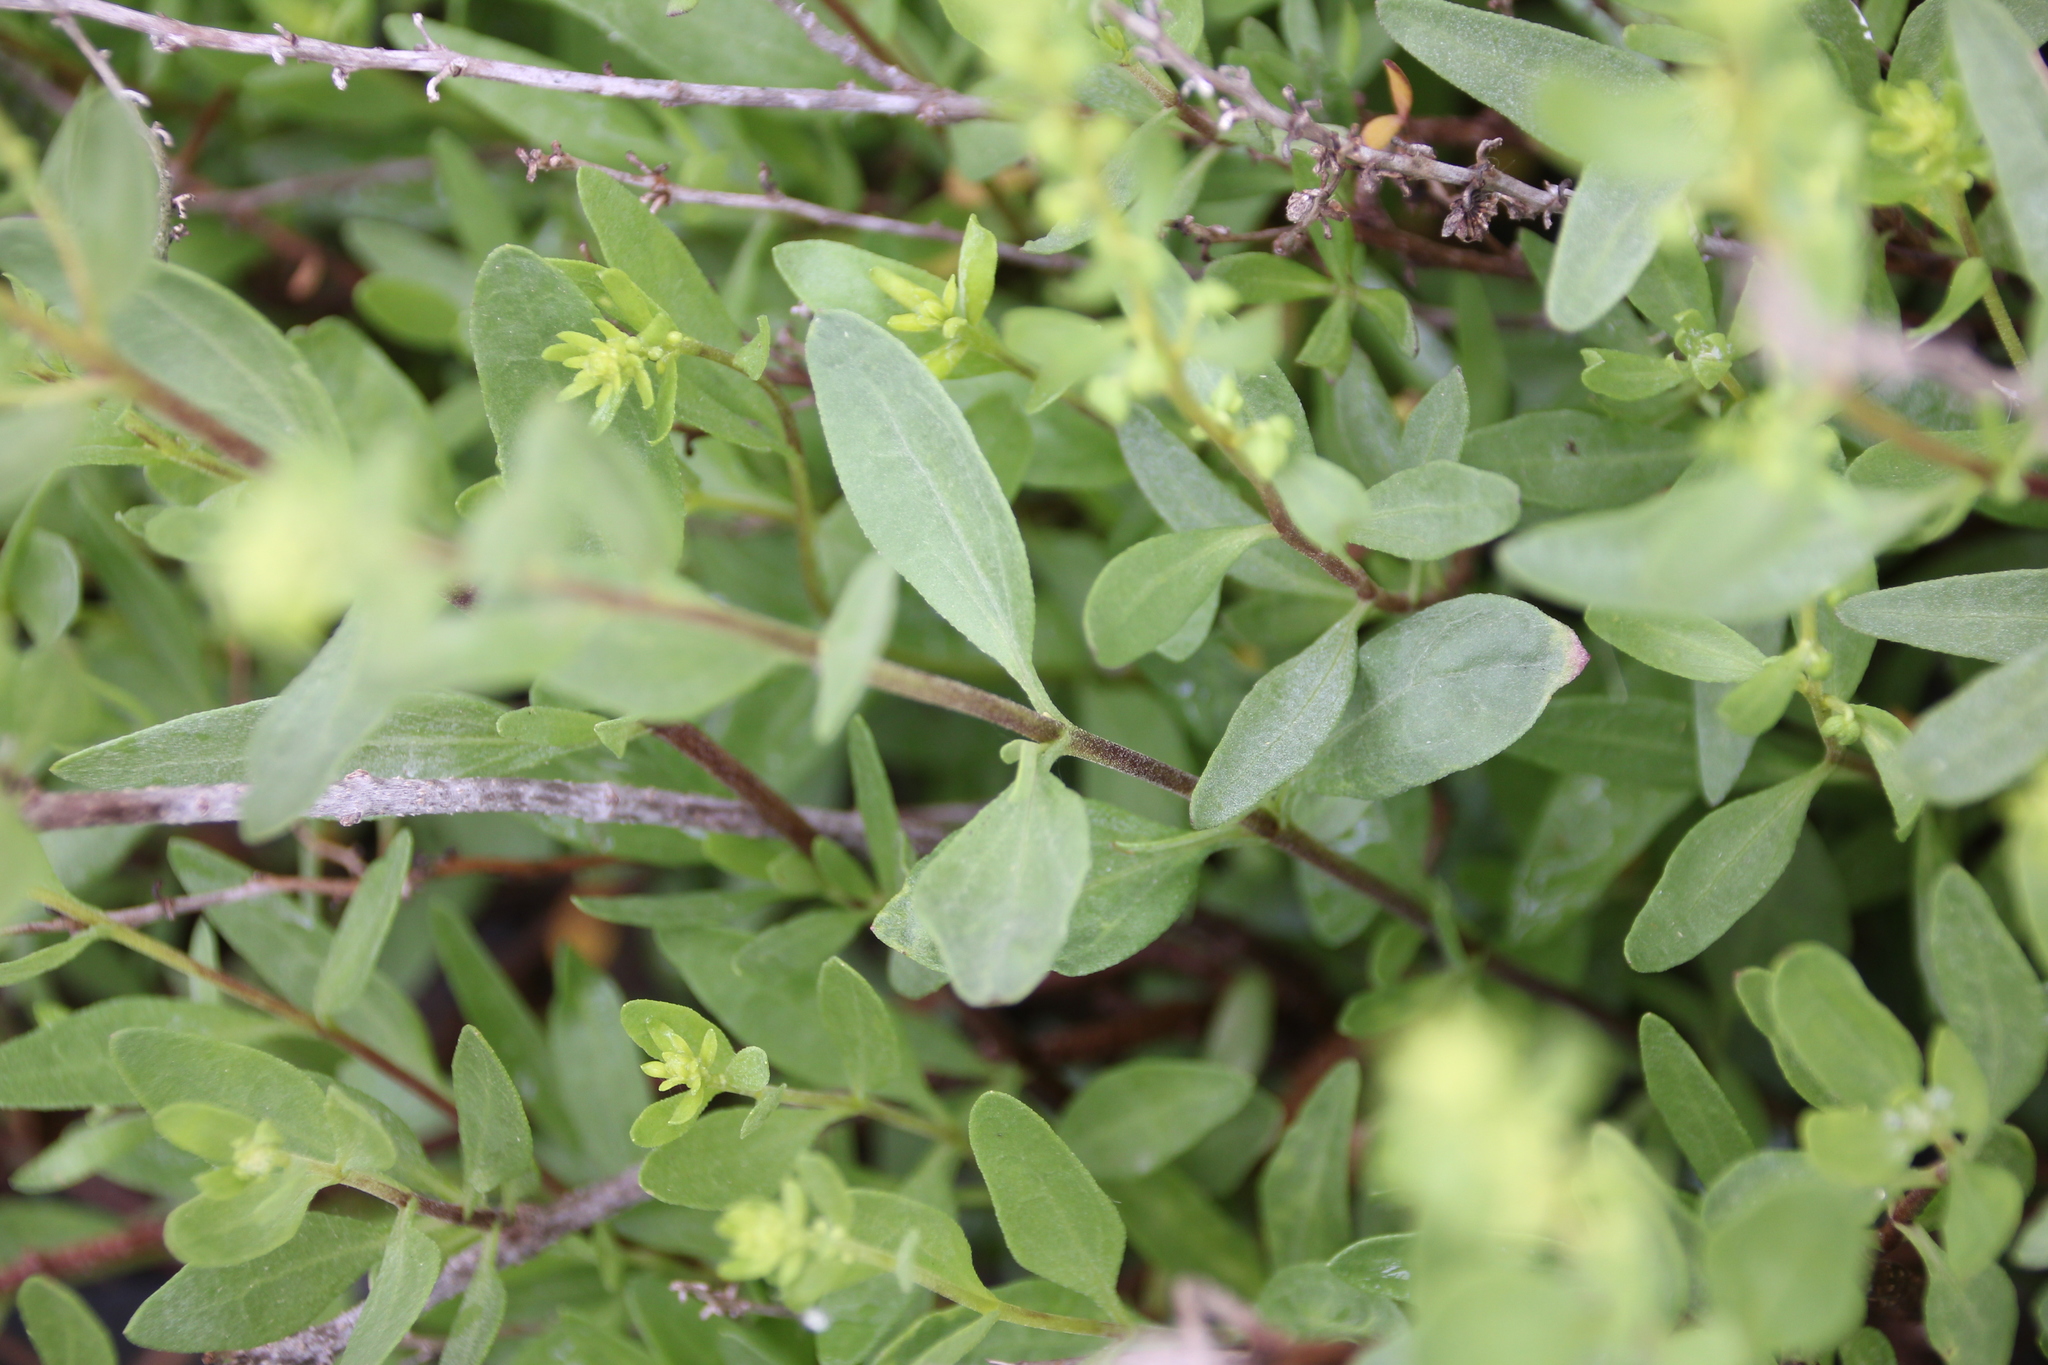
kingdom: Plantae
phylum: Tracheophyta
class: Magnoliopsida
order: Asterales
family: Asteraceae
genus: Iva
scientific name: Iva hayesiana
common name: San diego marsh-elder
